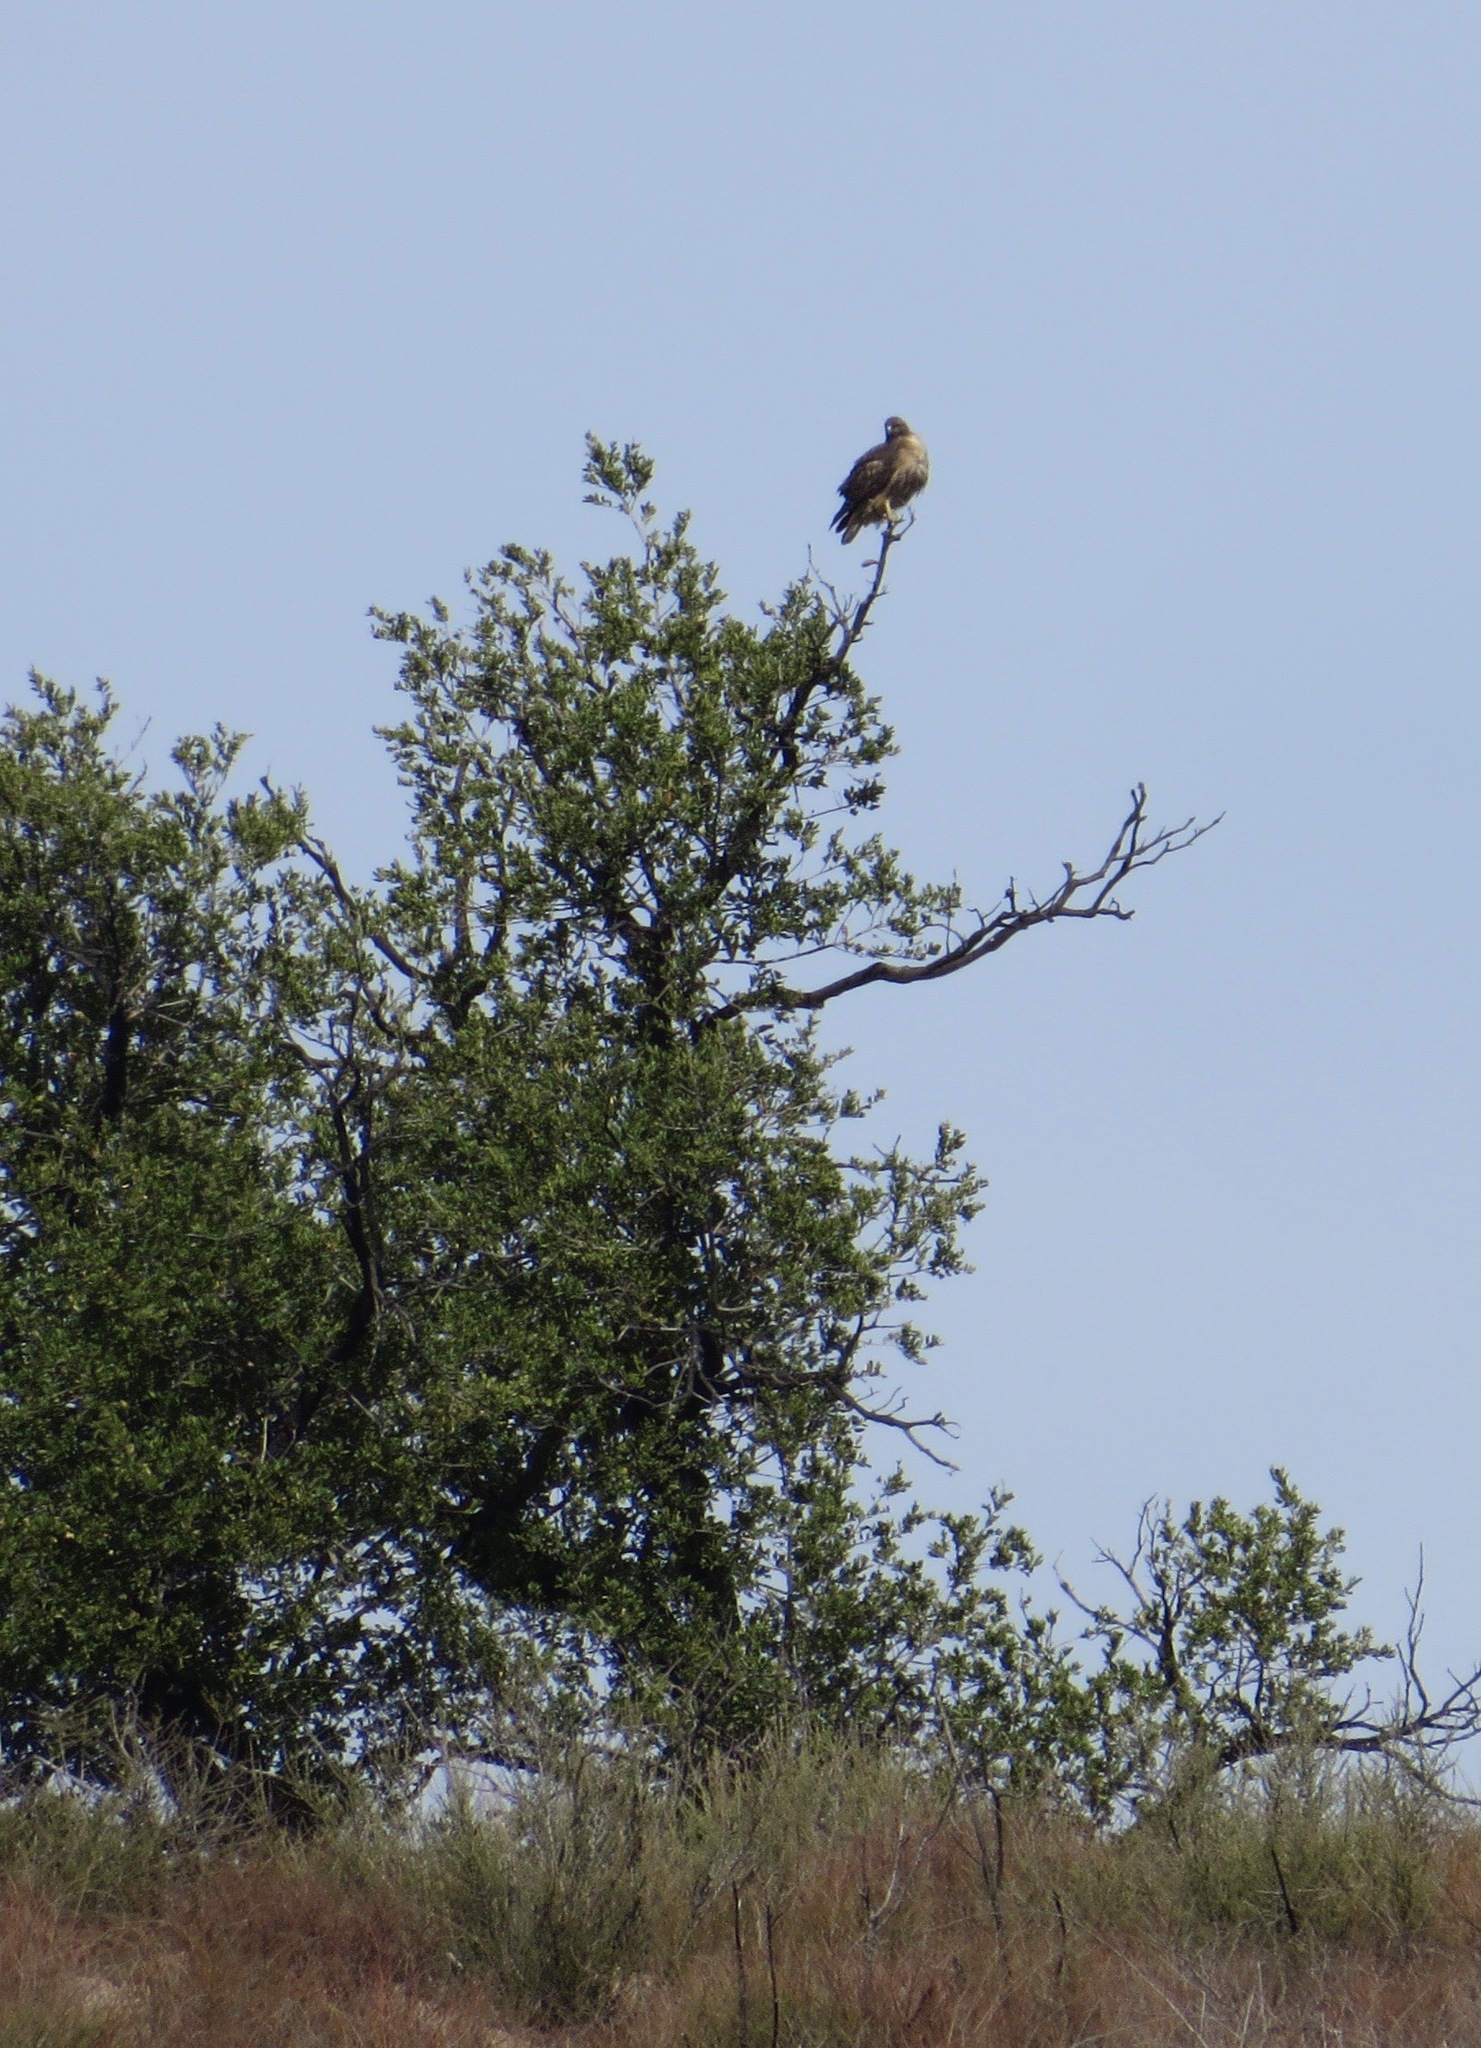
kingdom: Animalia
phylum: Chordata
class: Aves
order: Accipitriformes
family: Accipitridae
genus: Buteo
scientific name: Buteo jamaicensis
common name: Red-tailed hawk
